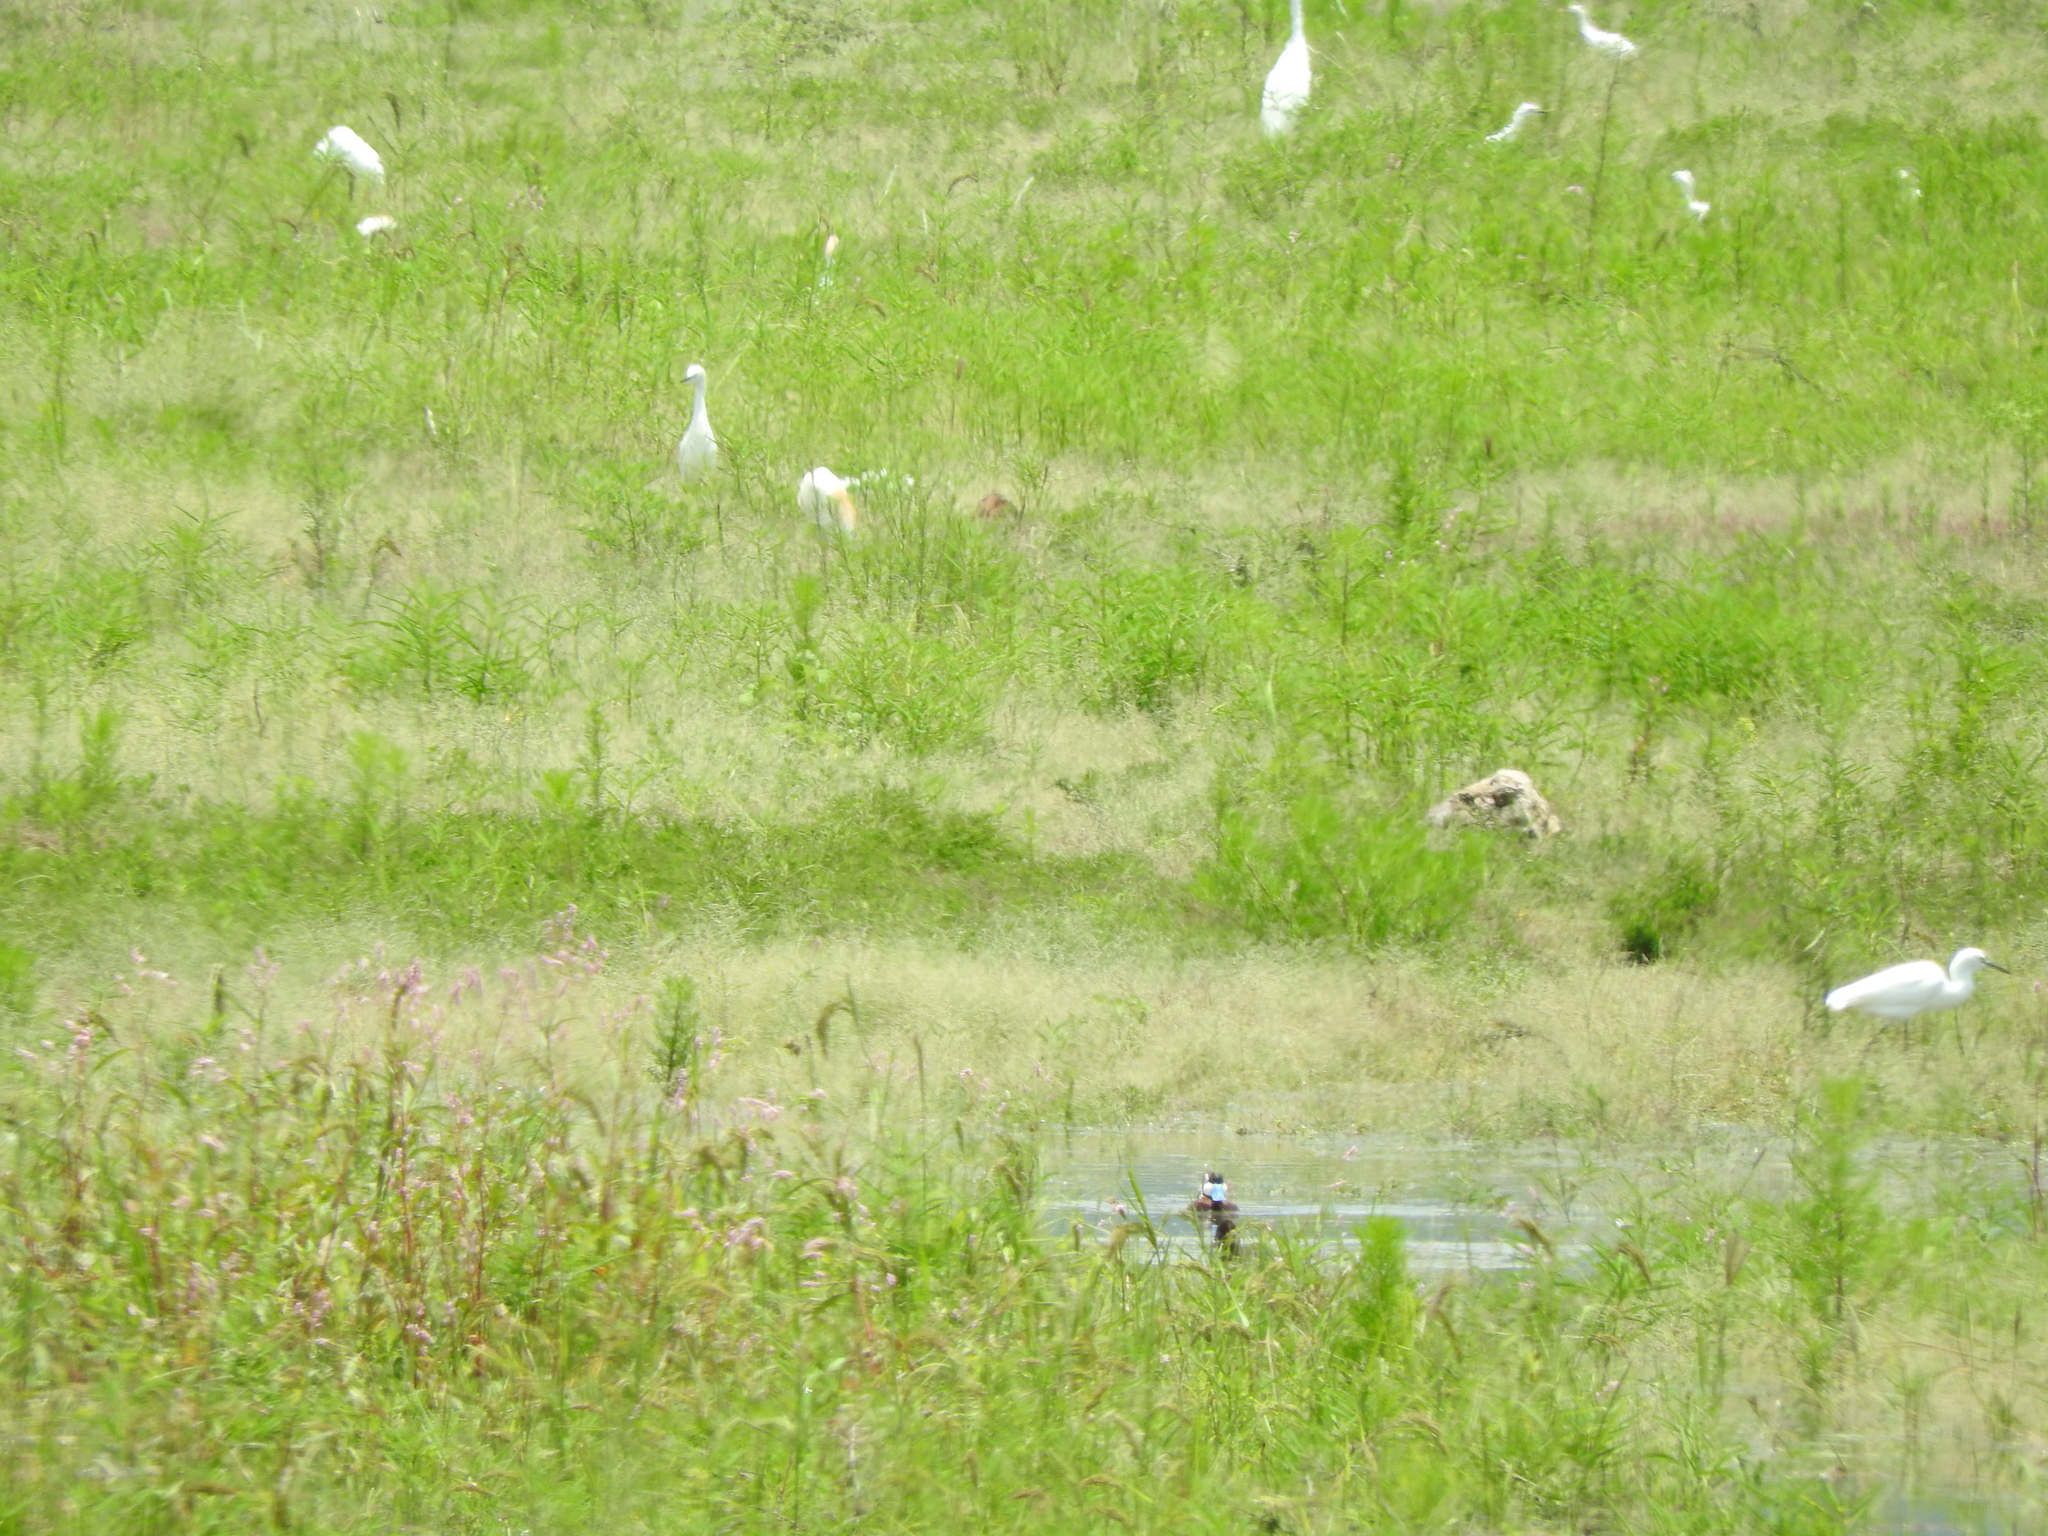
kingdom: Animalia
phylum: Chordata
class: Aves
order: Pelecaniformes
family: Ardeidae
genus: Bubulcus
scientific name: Bubulcus ibis
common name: Cattle egret
